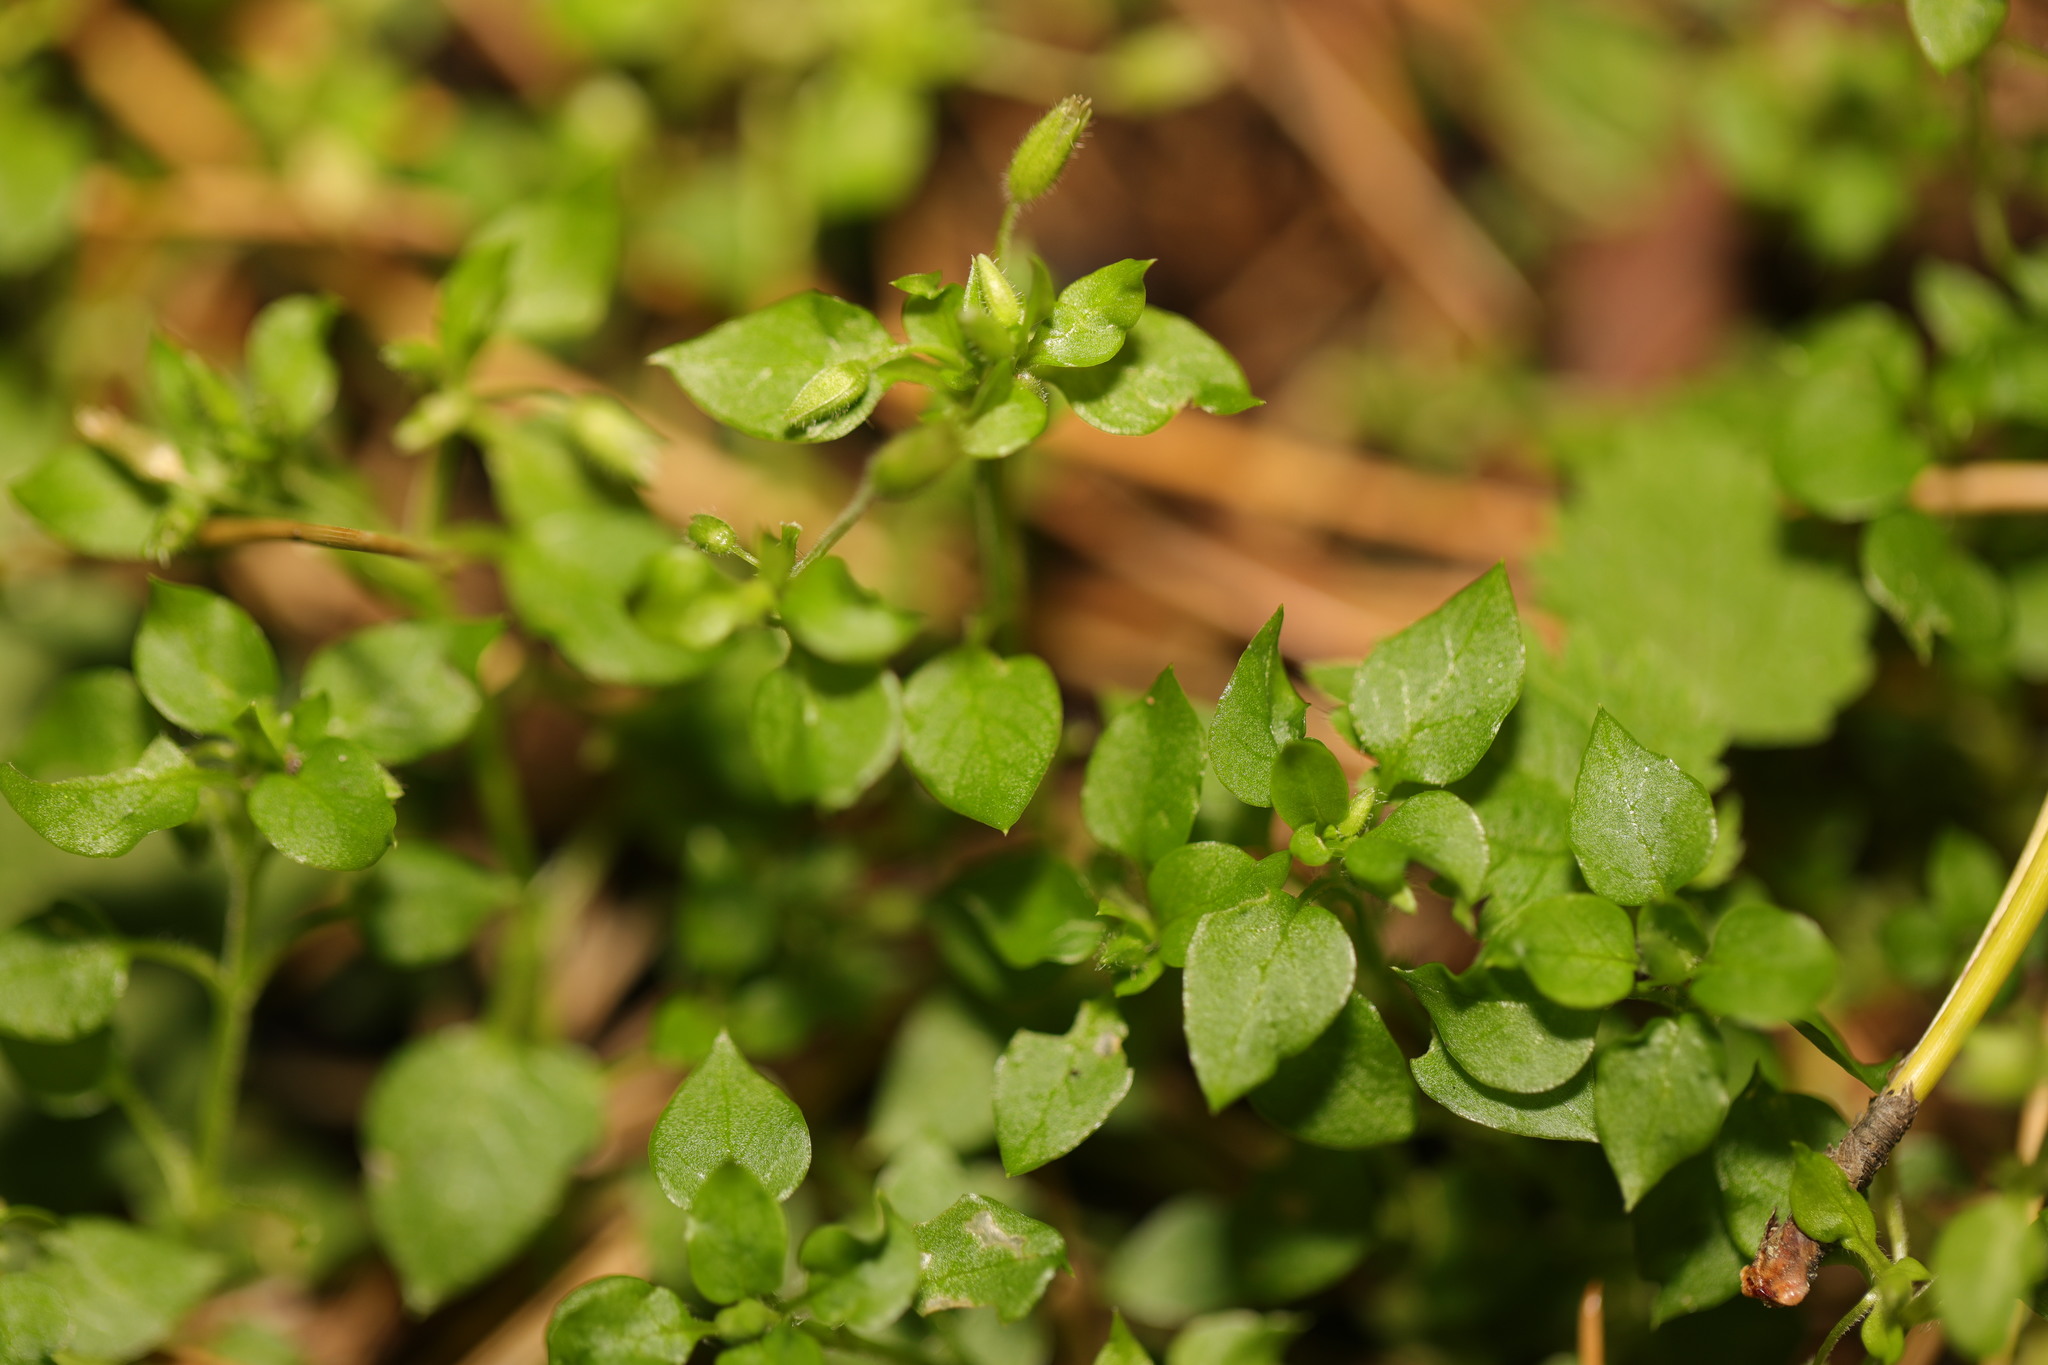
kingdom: Plantae
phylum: Tracheophyta
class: Magnoliopsida
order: Caryophyllales
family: Caryophyllaceae
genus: Stellaria
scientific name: Stellaria media
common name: Common chickweed
